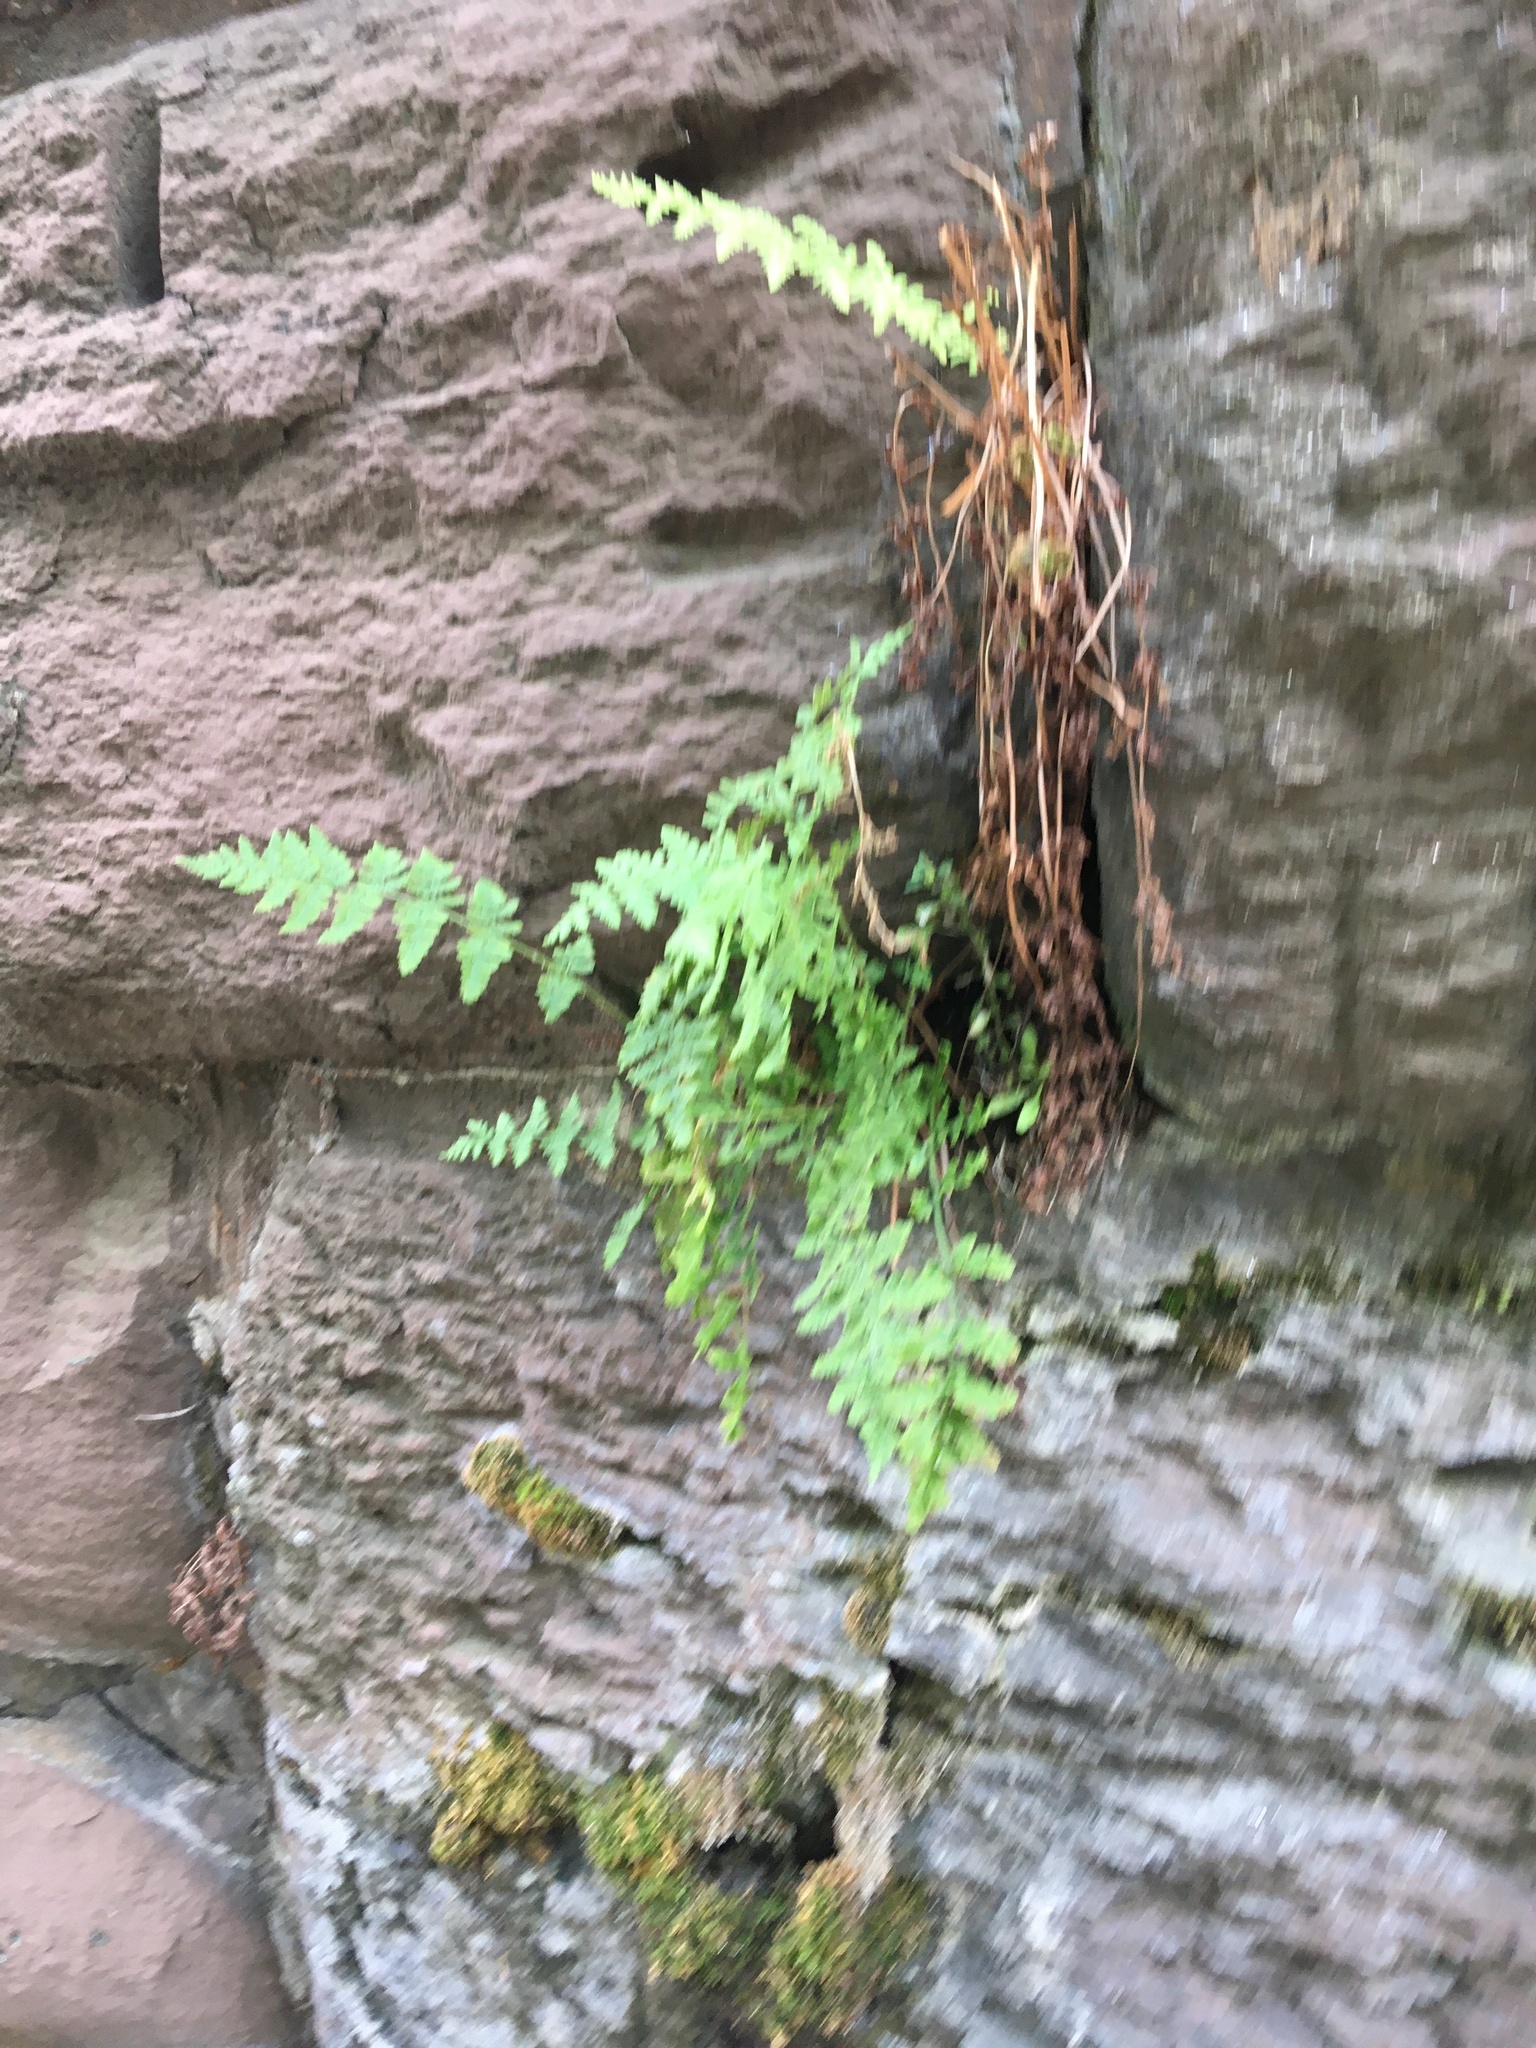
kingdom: Plantae
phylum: Tracheophyta
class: Polypodiopsida
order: Polypodiales
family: Woodsiaceae
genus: Physematium
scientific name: Physematium obtusum
